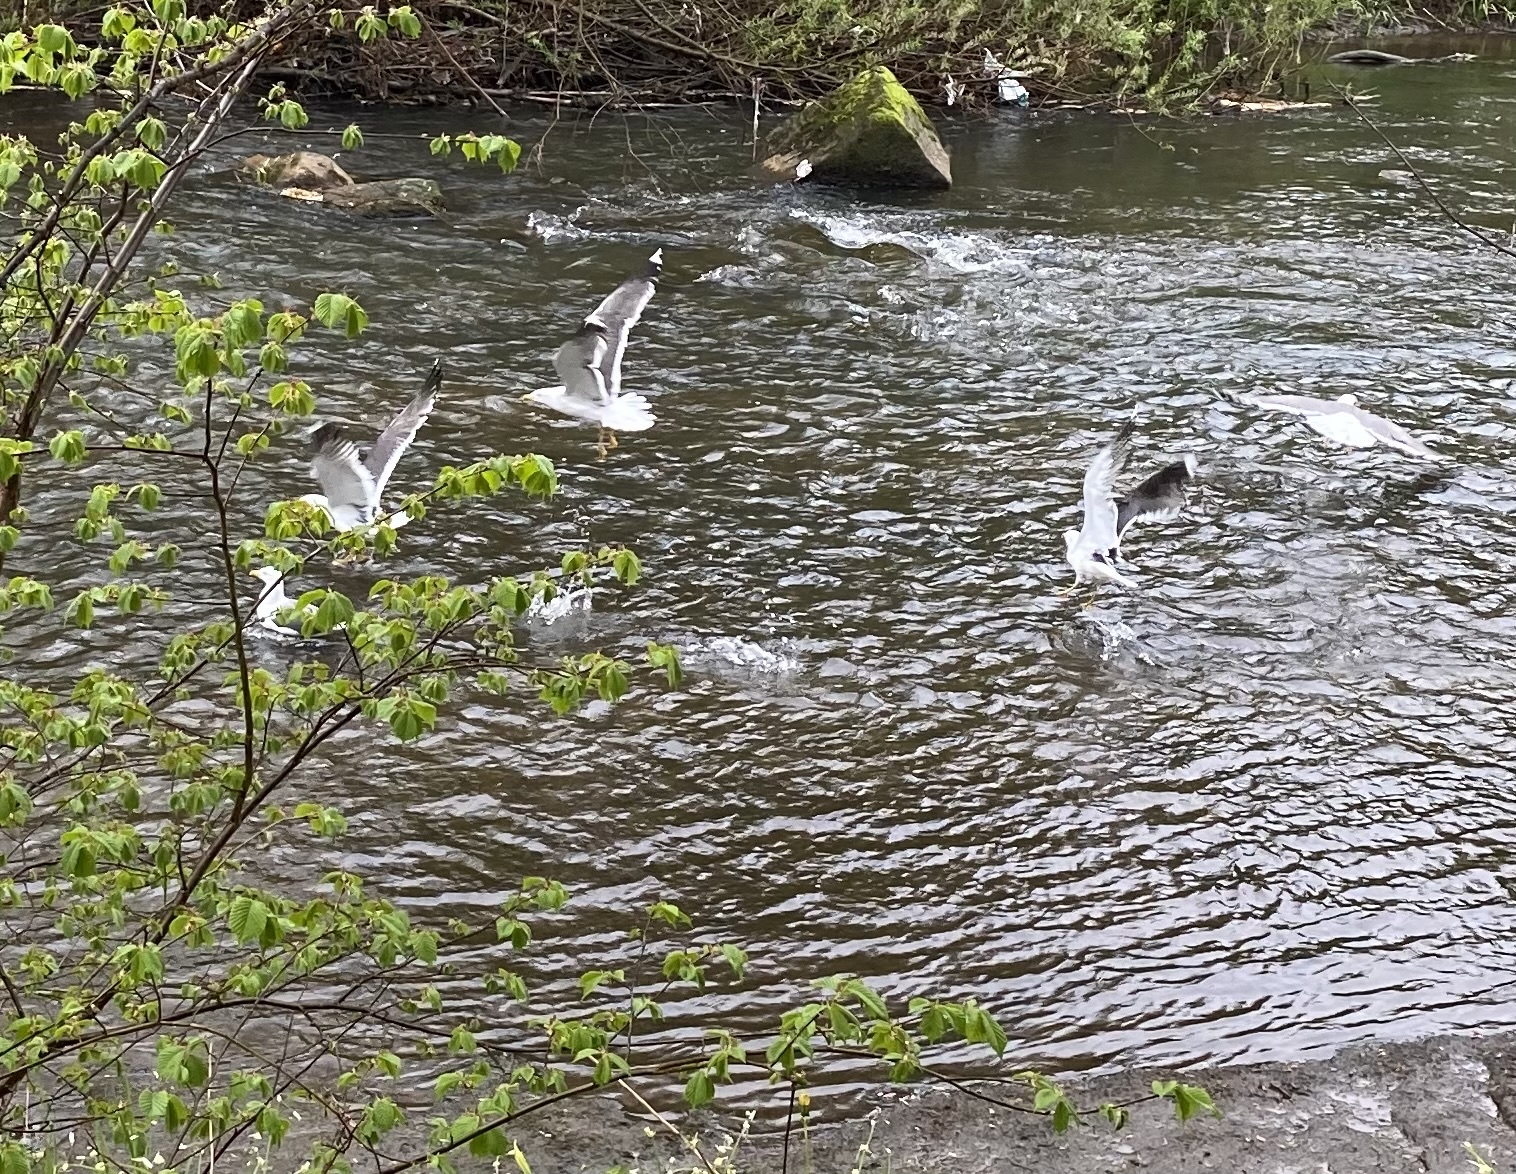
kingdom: Animalia
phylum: Chordata
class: Aves
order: Charadriiformes
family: Laridae
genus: Larus
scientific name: Larus fuscus
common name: Lesser black-backed gull
